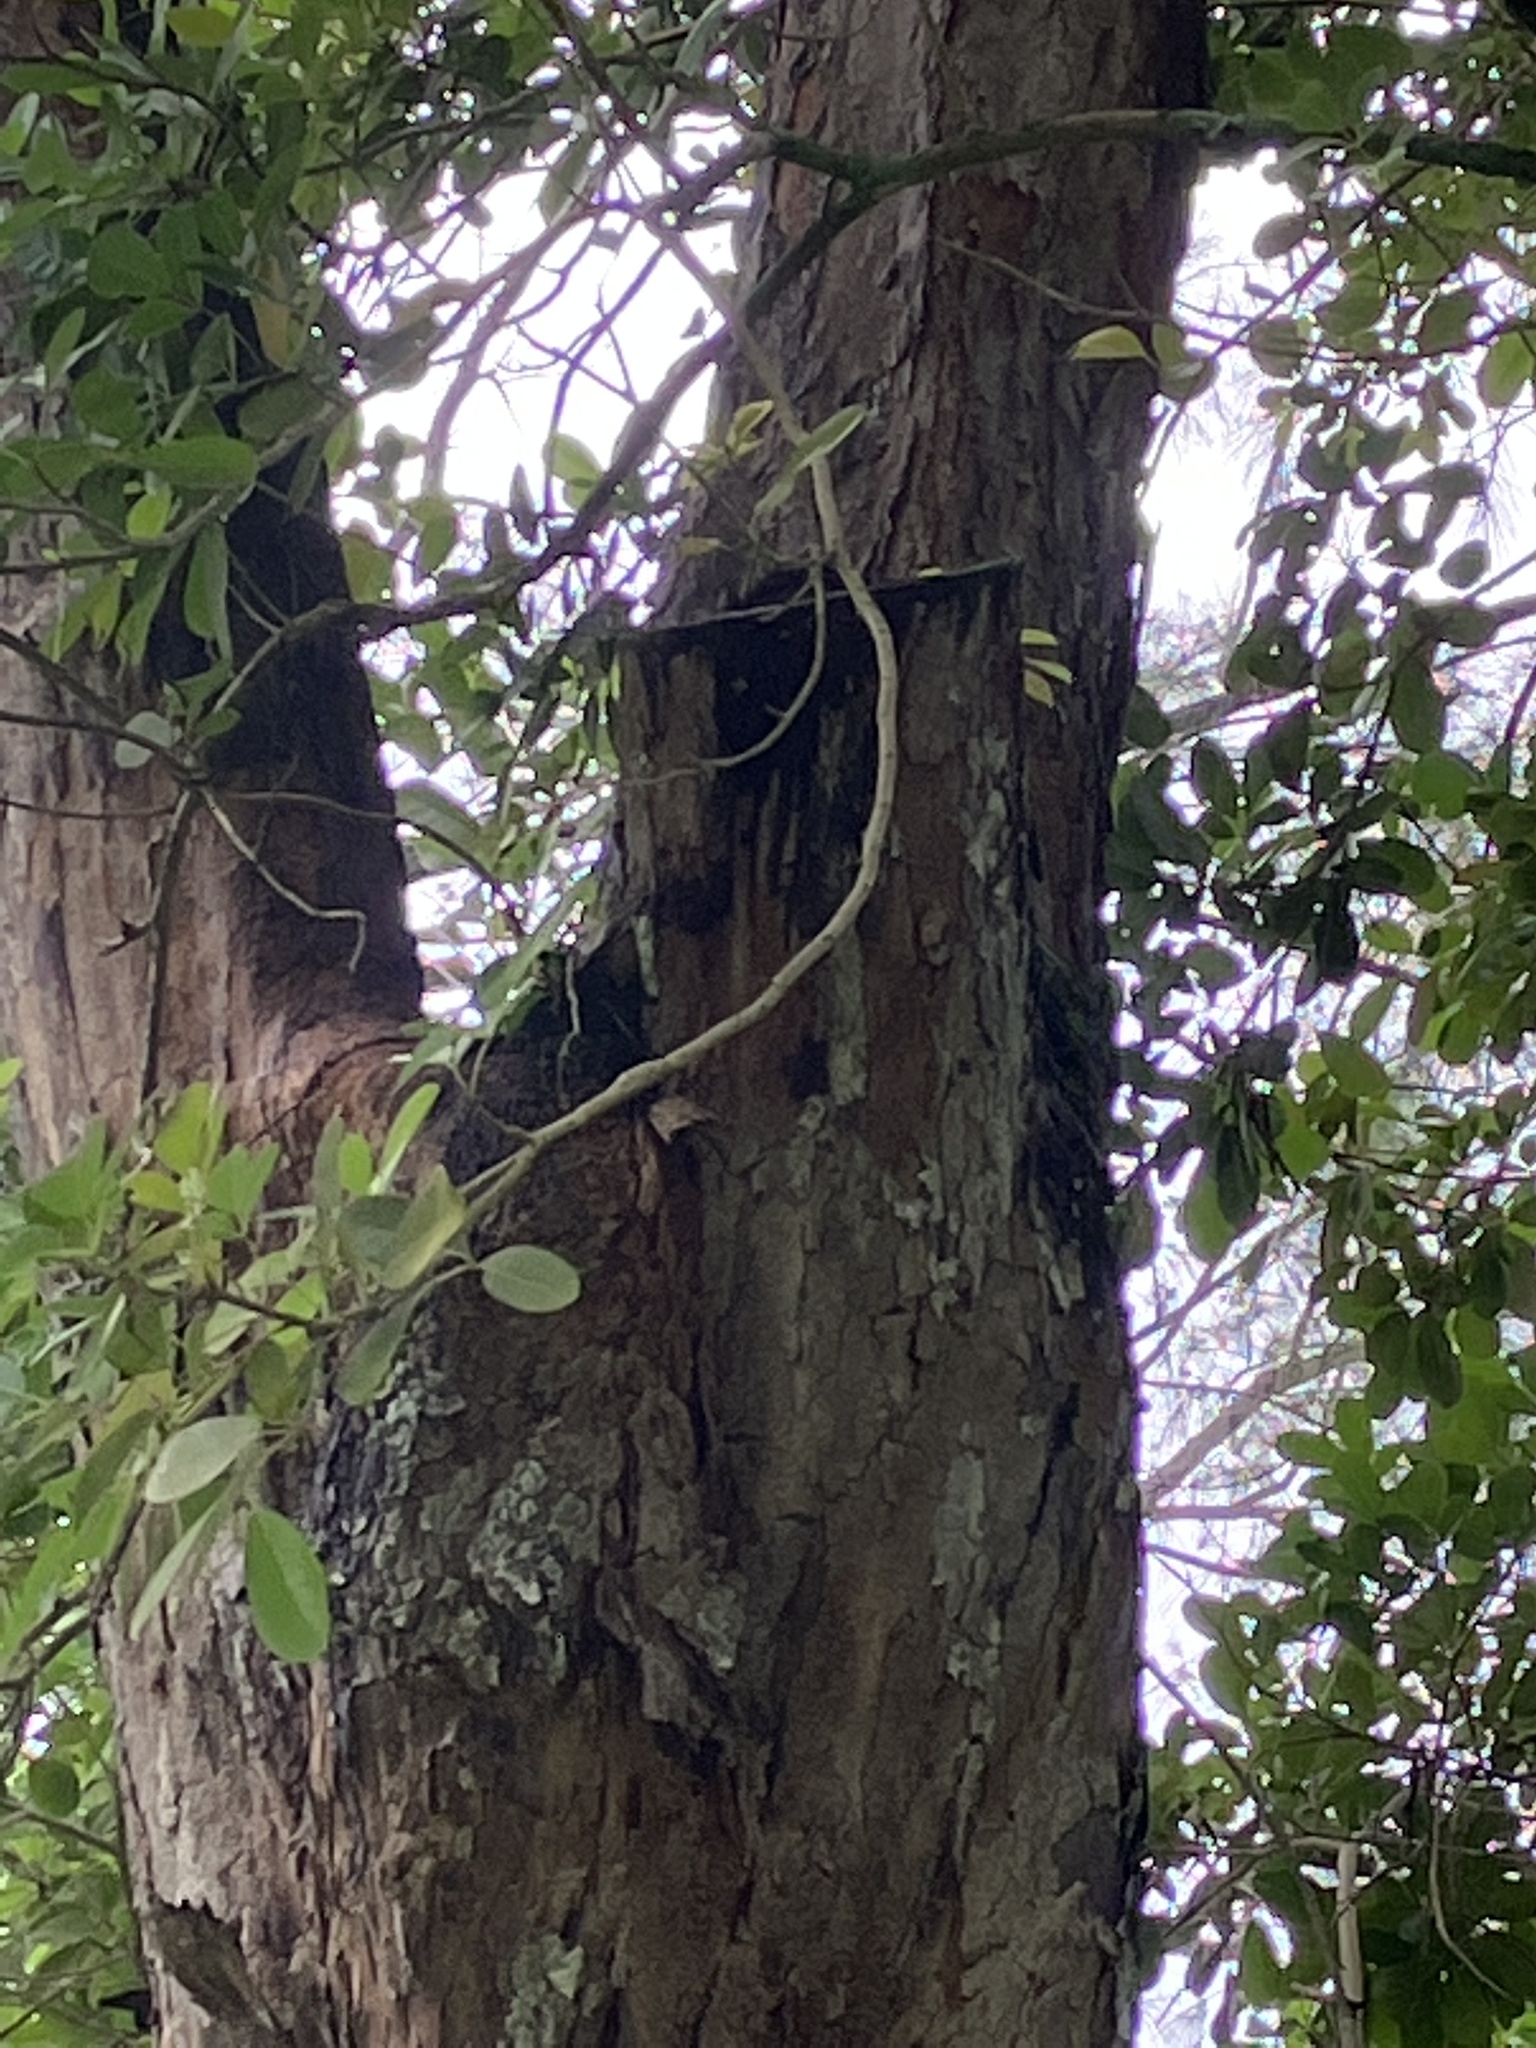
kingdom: Animalia
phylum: Chordata
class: Aves
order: Phaethontiformes
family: Phaethontidae
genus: Phaethon
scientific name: Phaethon lepturus
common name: White-tailed tropicbird
